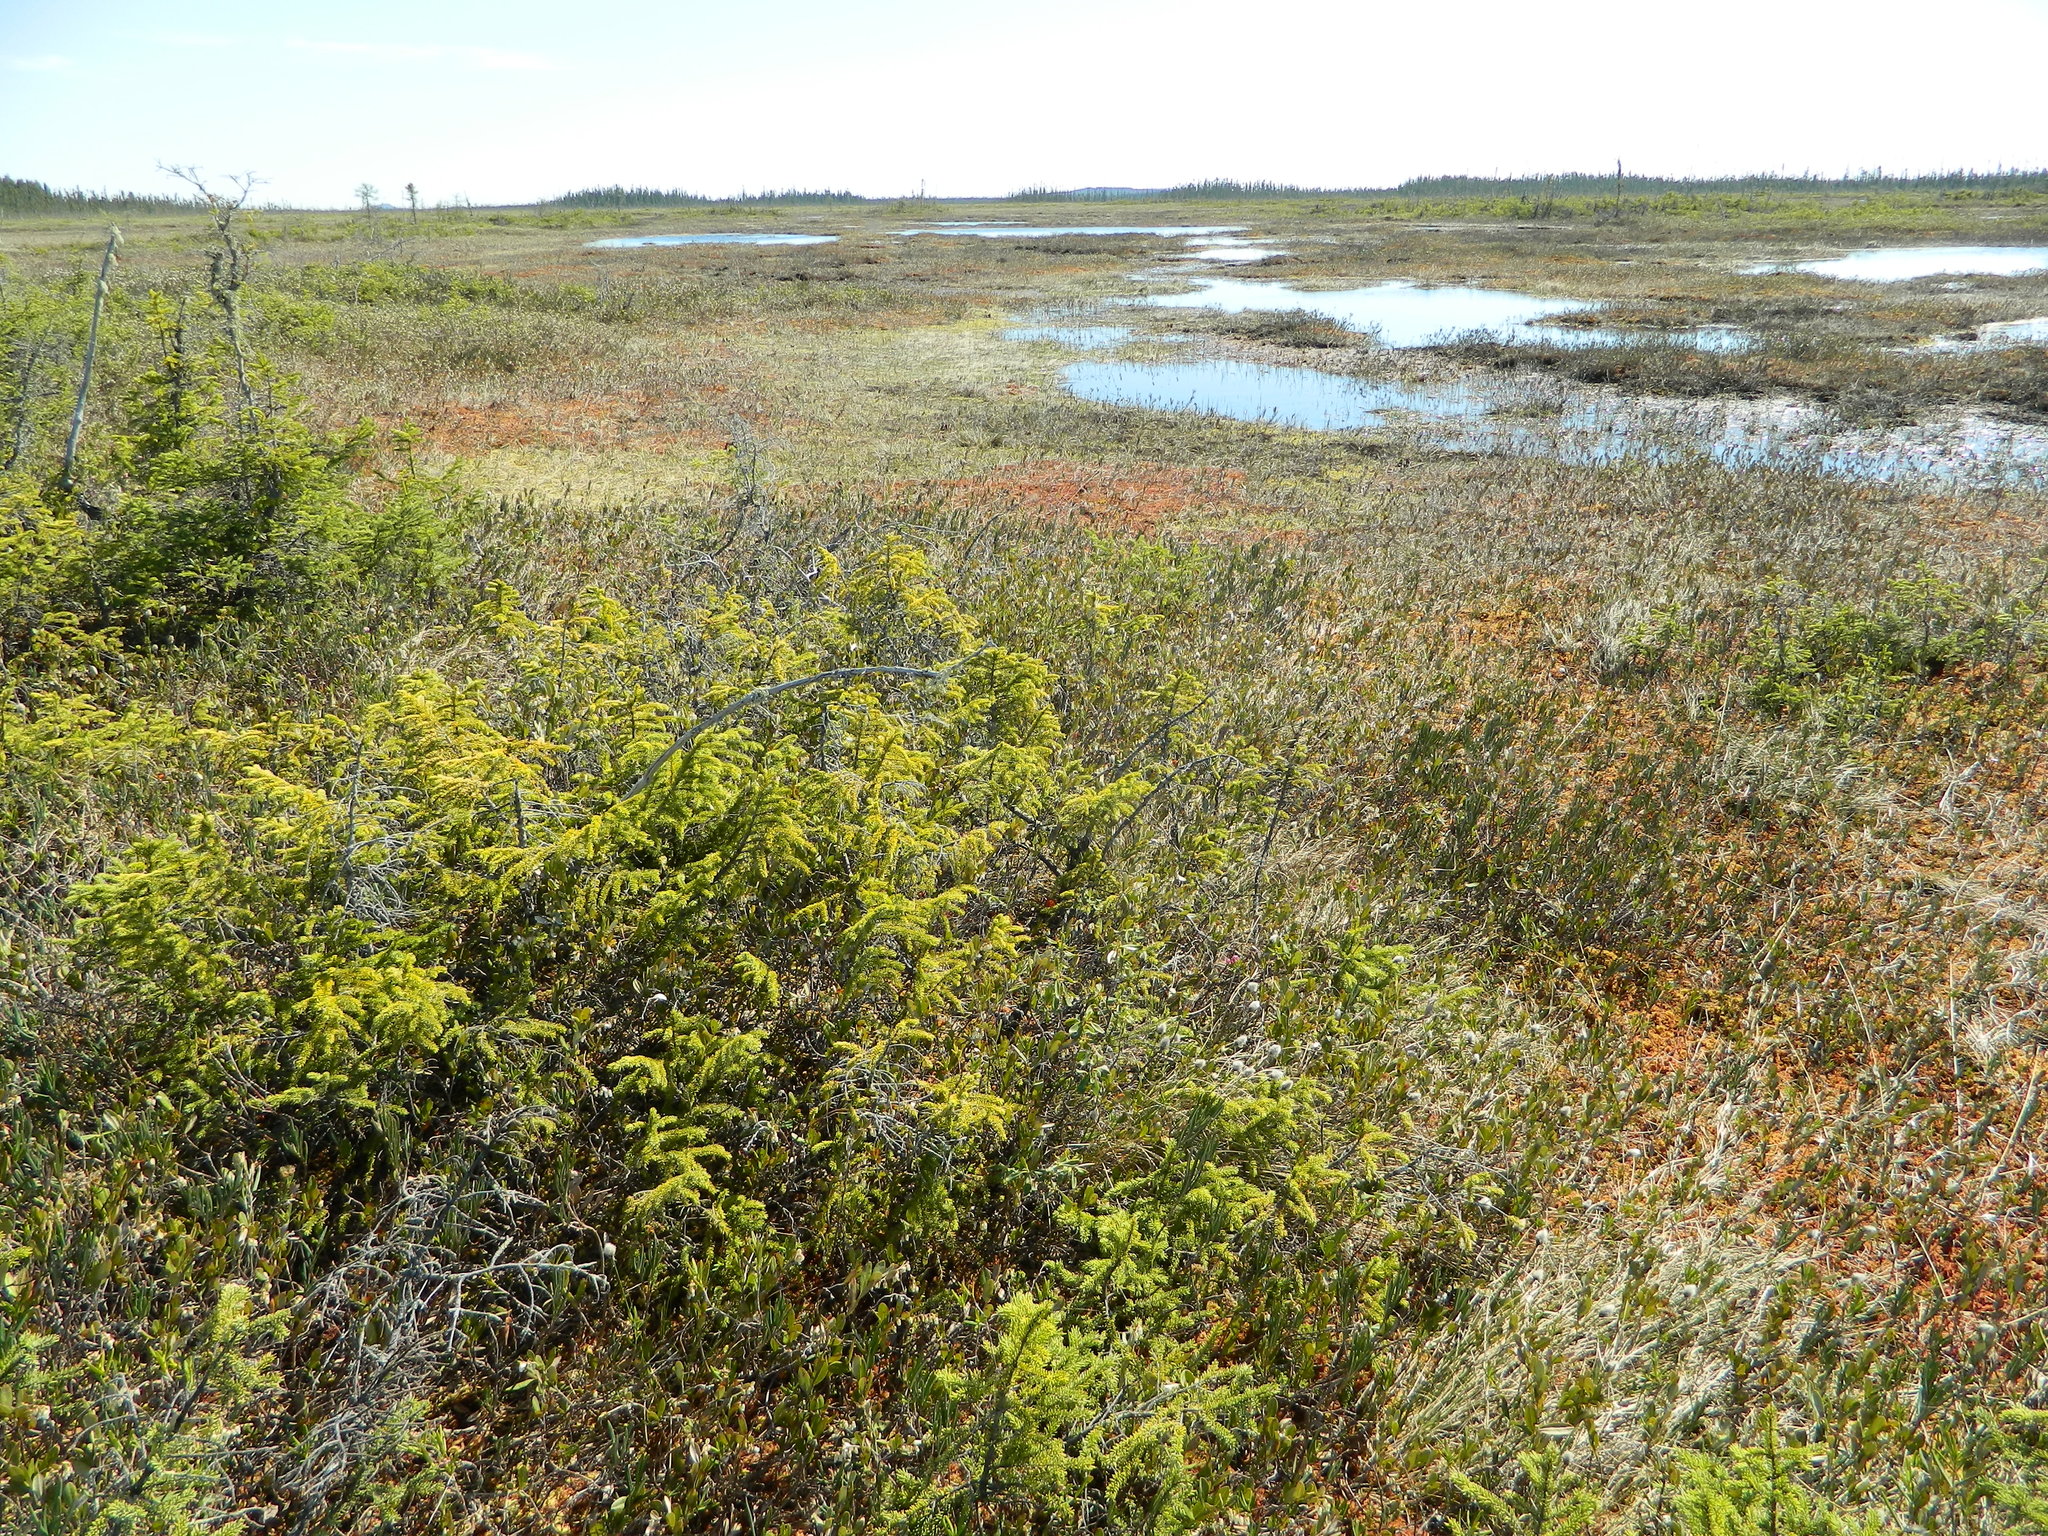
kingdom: Plantae
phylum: Tracheophyta
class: Pinopsida
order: Pinales
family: Pinaceae
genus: Picea
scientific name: Picea mariana
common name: Black spruce
